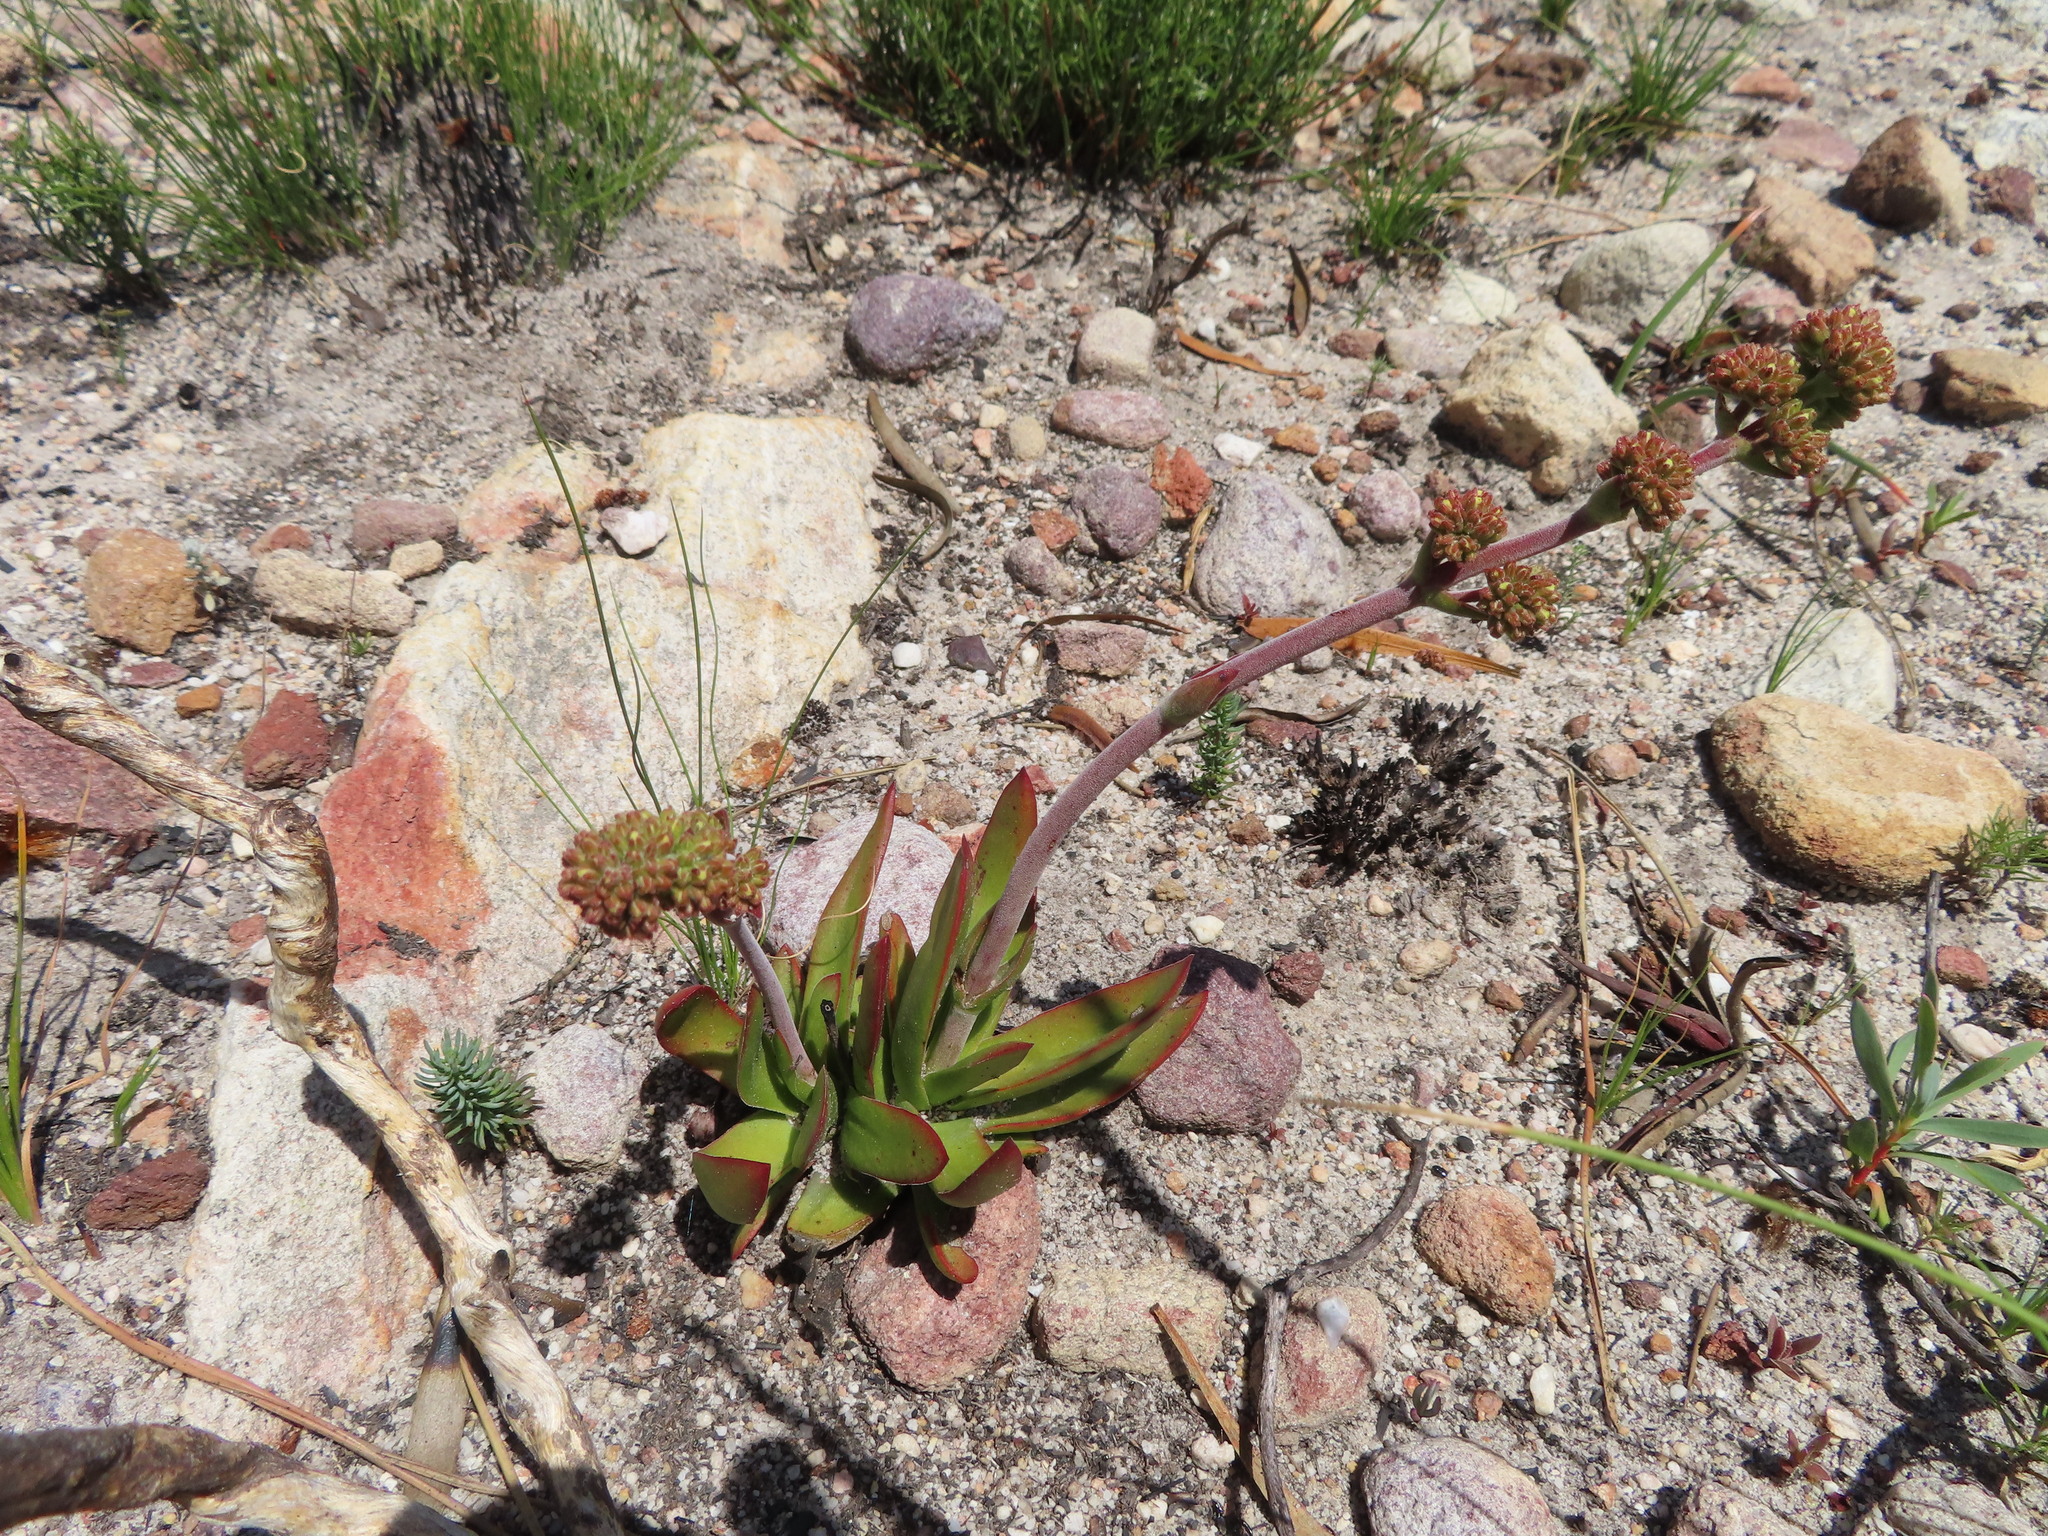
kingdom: Plantae
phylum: Tracheophyta
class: Magnoliopsida
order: Saxifragales
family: Crassulaceae
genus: Crassula
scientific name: Crassula nudicaulis
